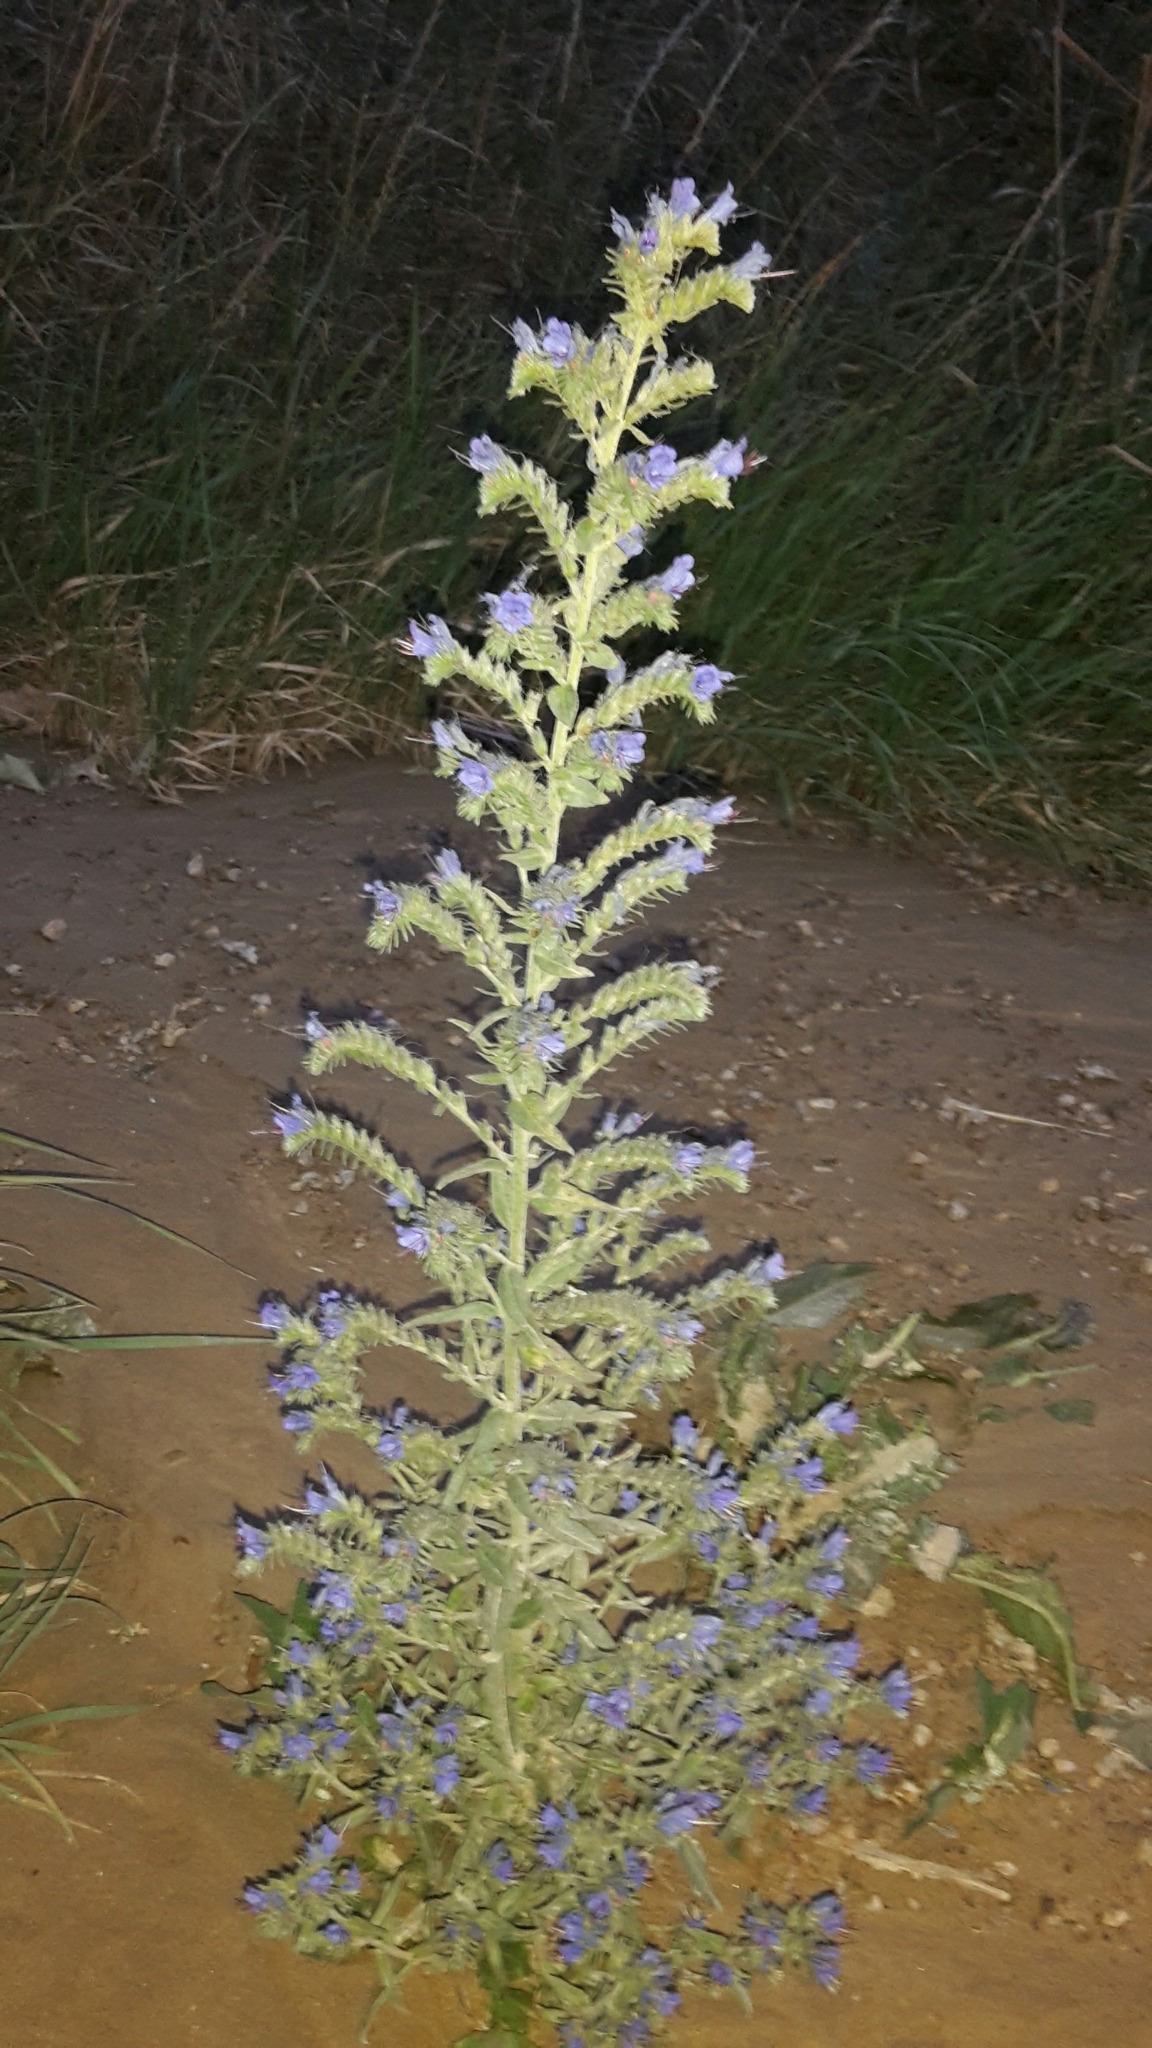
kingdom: Plantae
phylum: Tracheophyta
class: Magnoliopsida
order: Boraginales
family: Boraginaceae
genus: Echium
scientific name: Echium vulgare
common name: Common viper's bugloss
